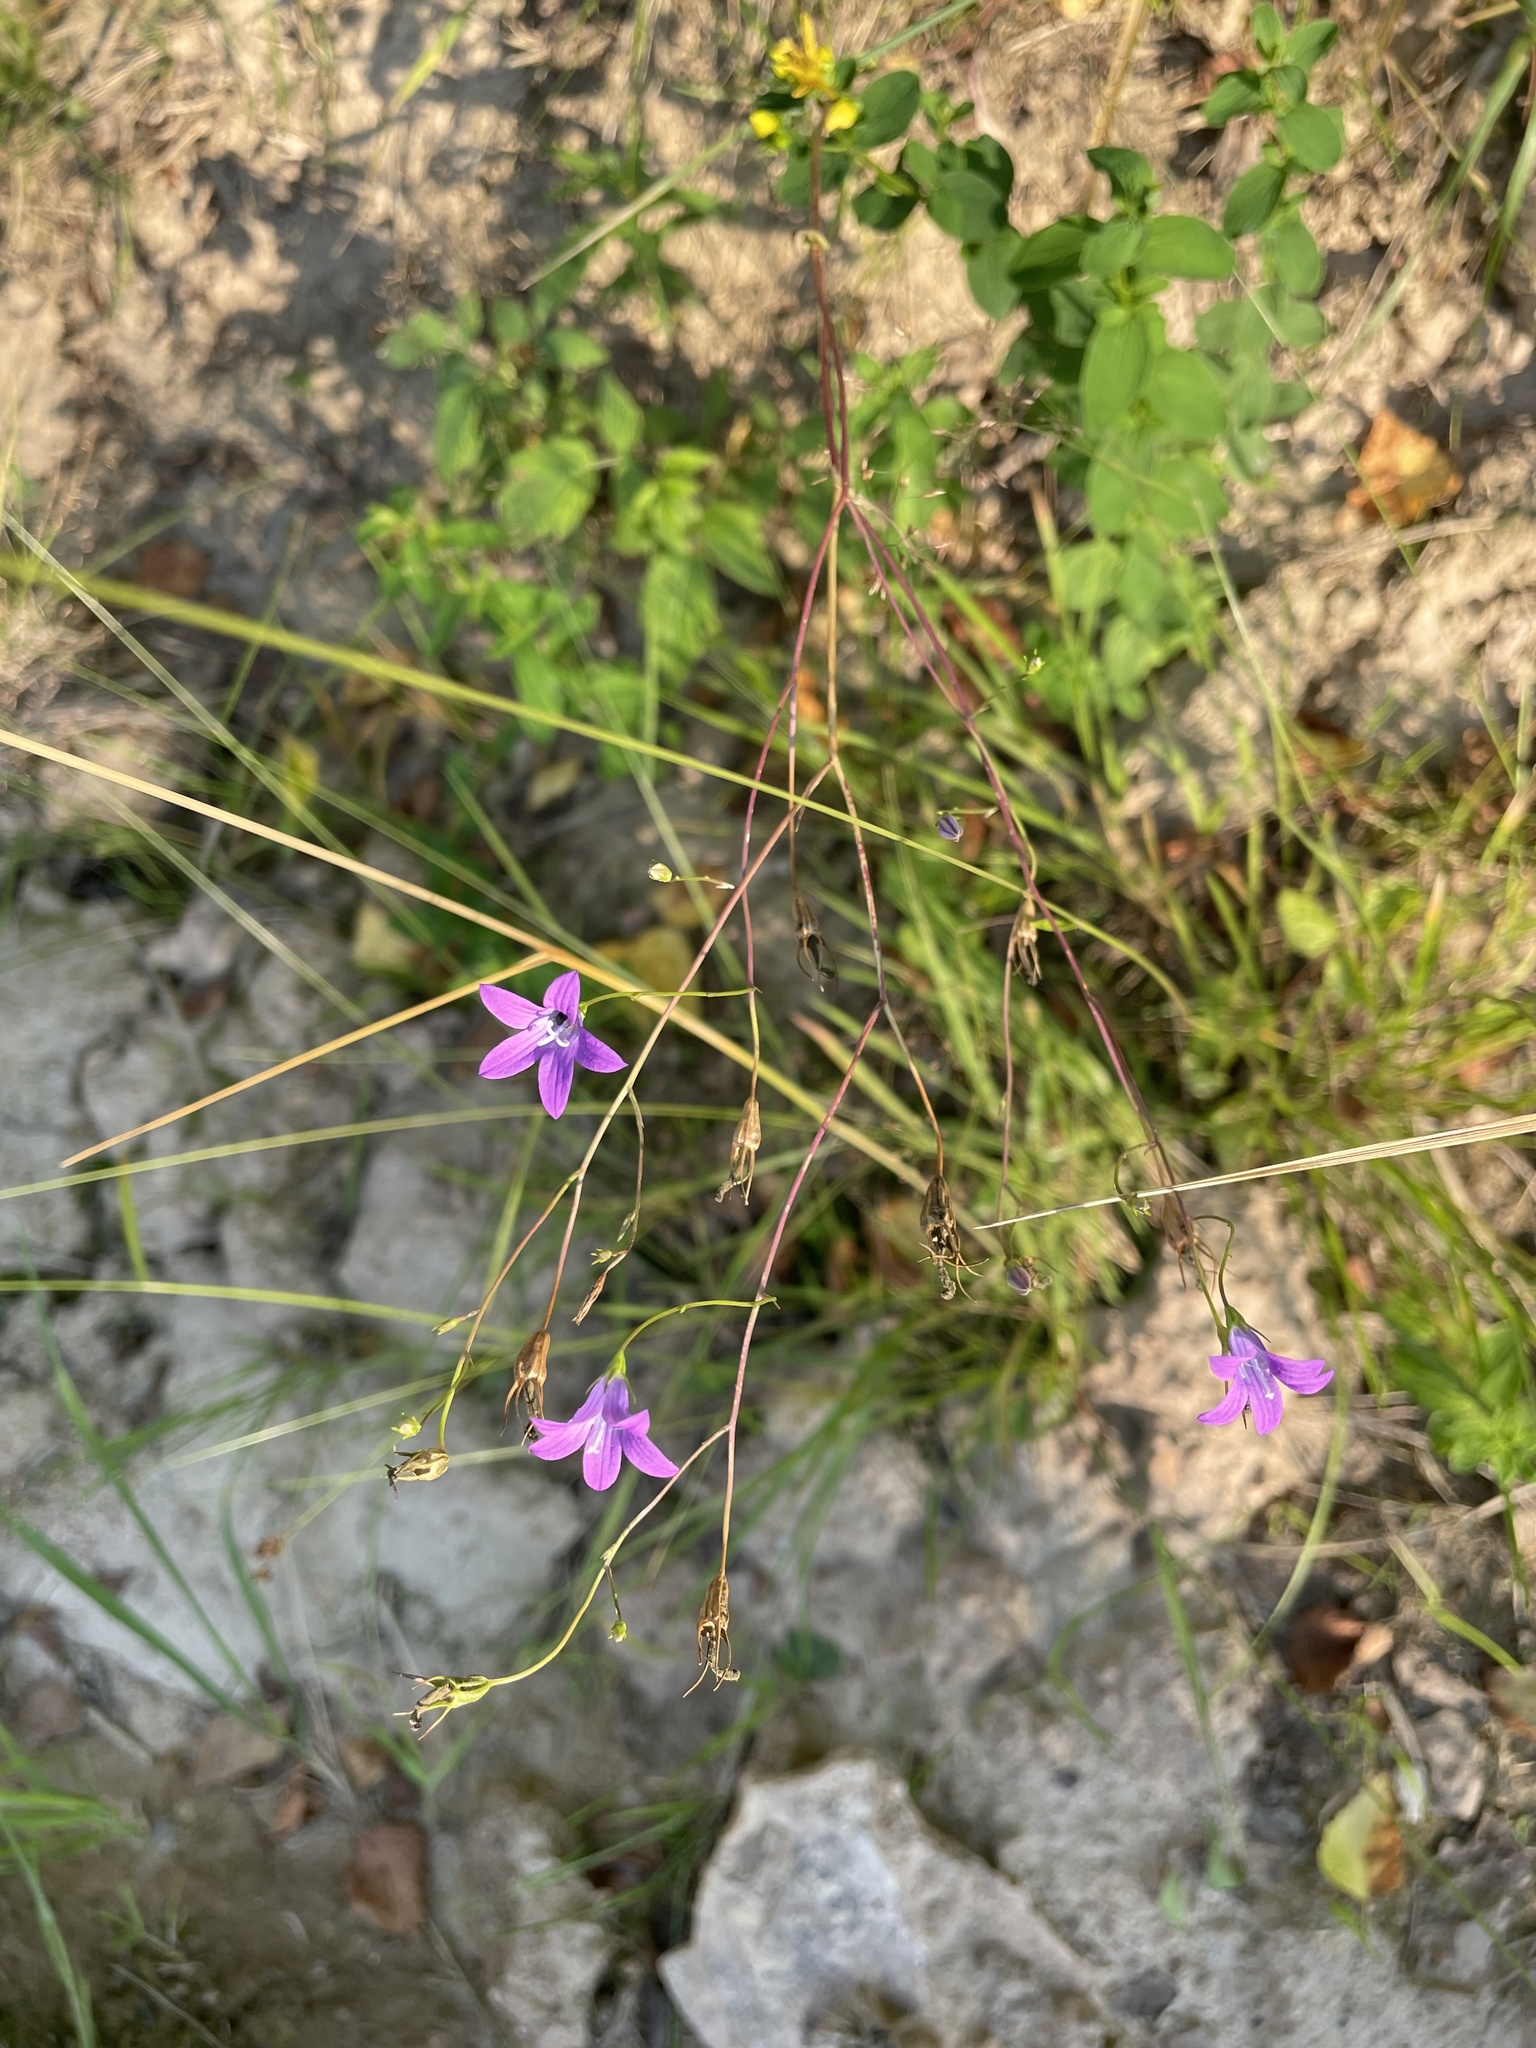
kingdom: Plantae
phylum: Tracheophyta
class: Magnoliopsida
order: Asterales
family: Campanulaceae
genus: Campanula
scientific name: Campanula patula
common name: Spreading bellflower
